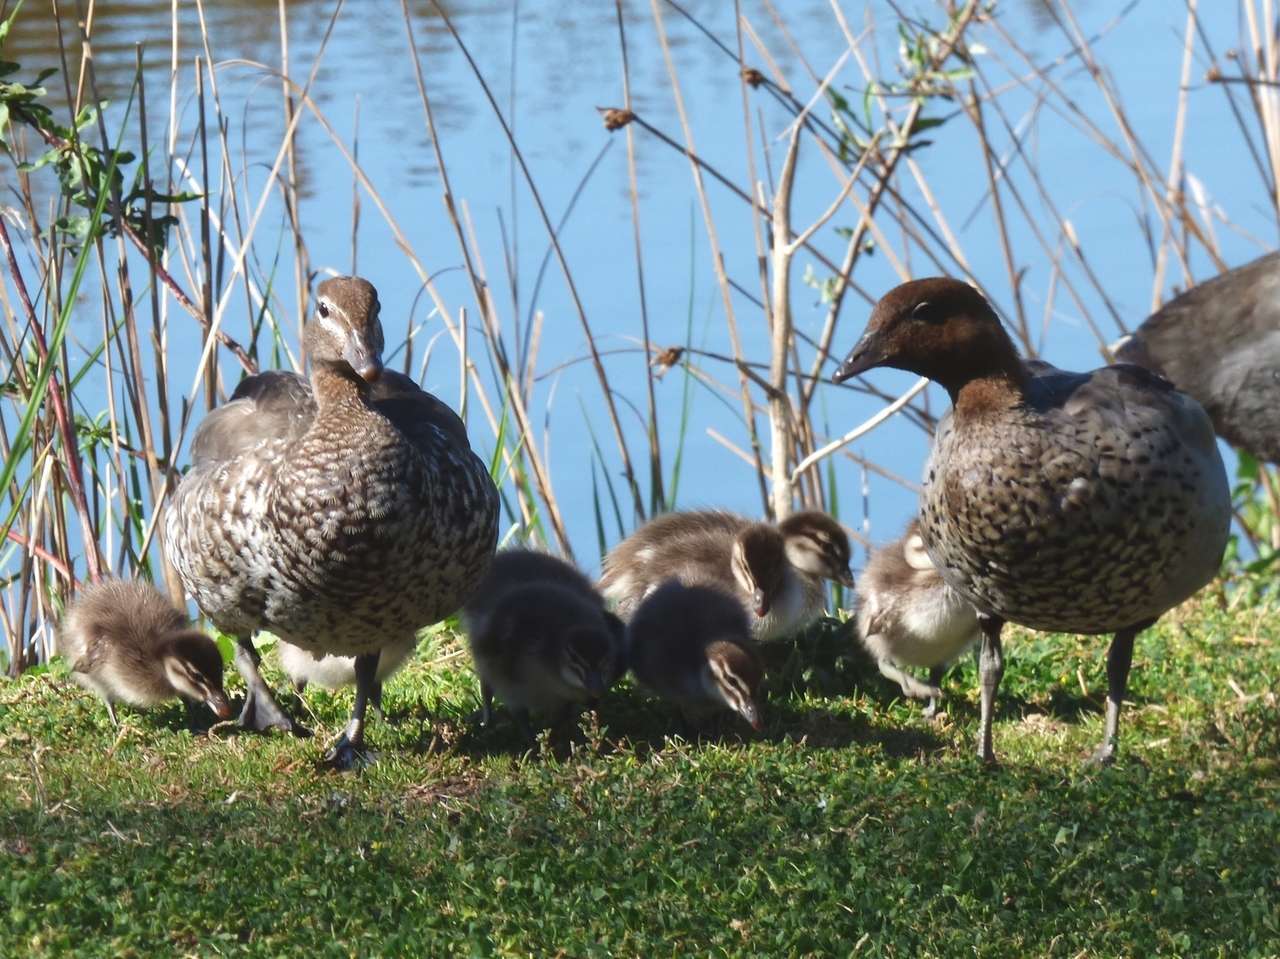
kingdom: Animalia
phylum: Chordata
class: Aves
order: Anseriformes
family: Anatidae
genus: Chenonetta
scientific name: Chenonetta jubata
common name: Maned duck
